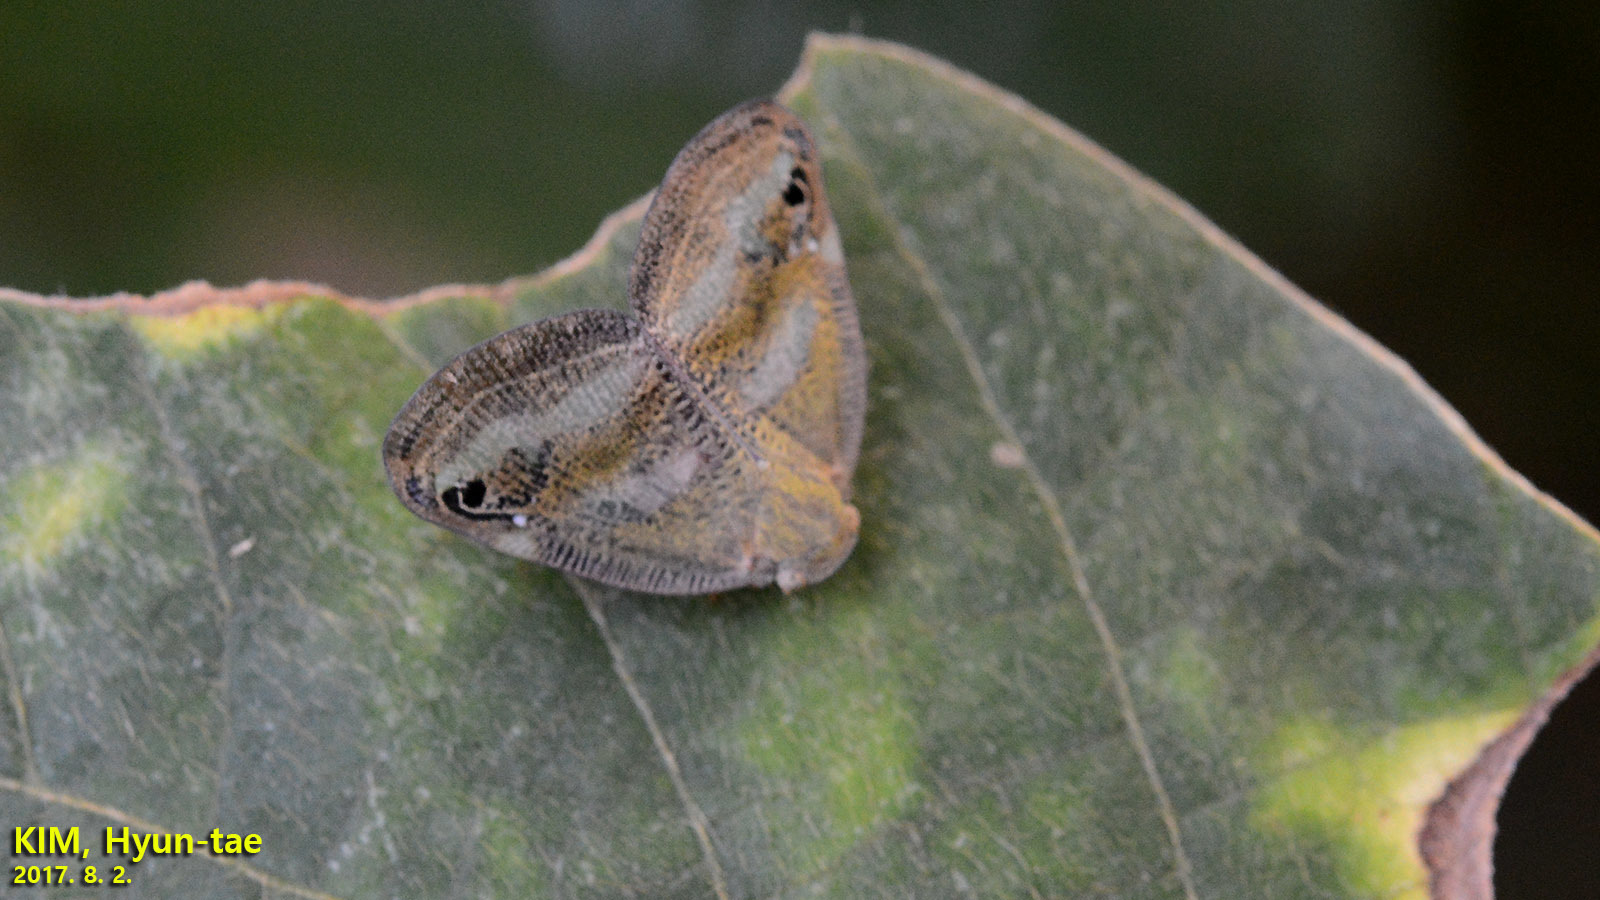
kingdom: Animalia
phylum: Arthropoda
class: Insecta
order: Hemiptera
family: Ricaniidae
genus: Orosanga
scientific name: Orosanga japonica
